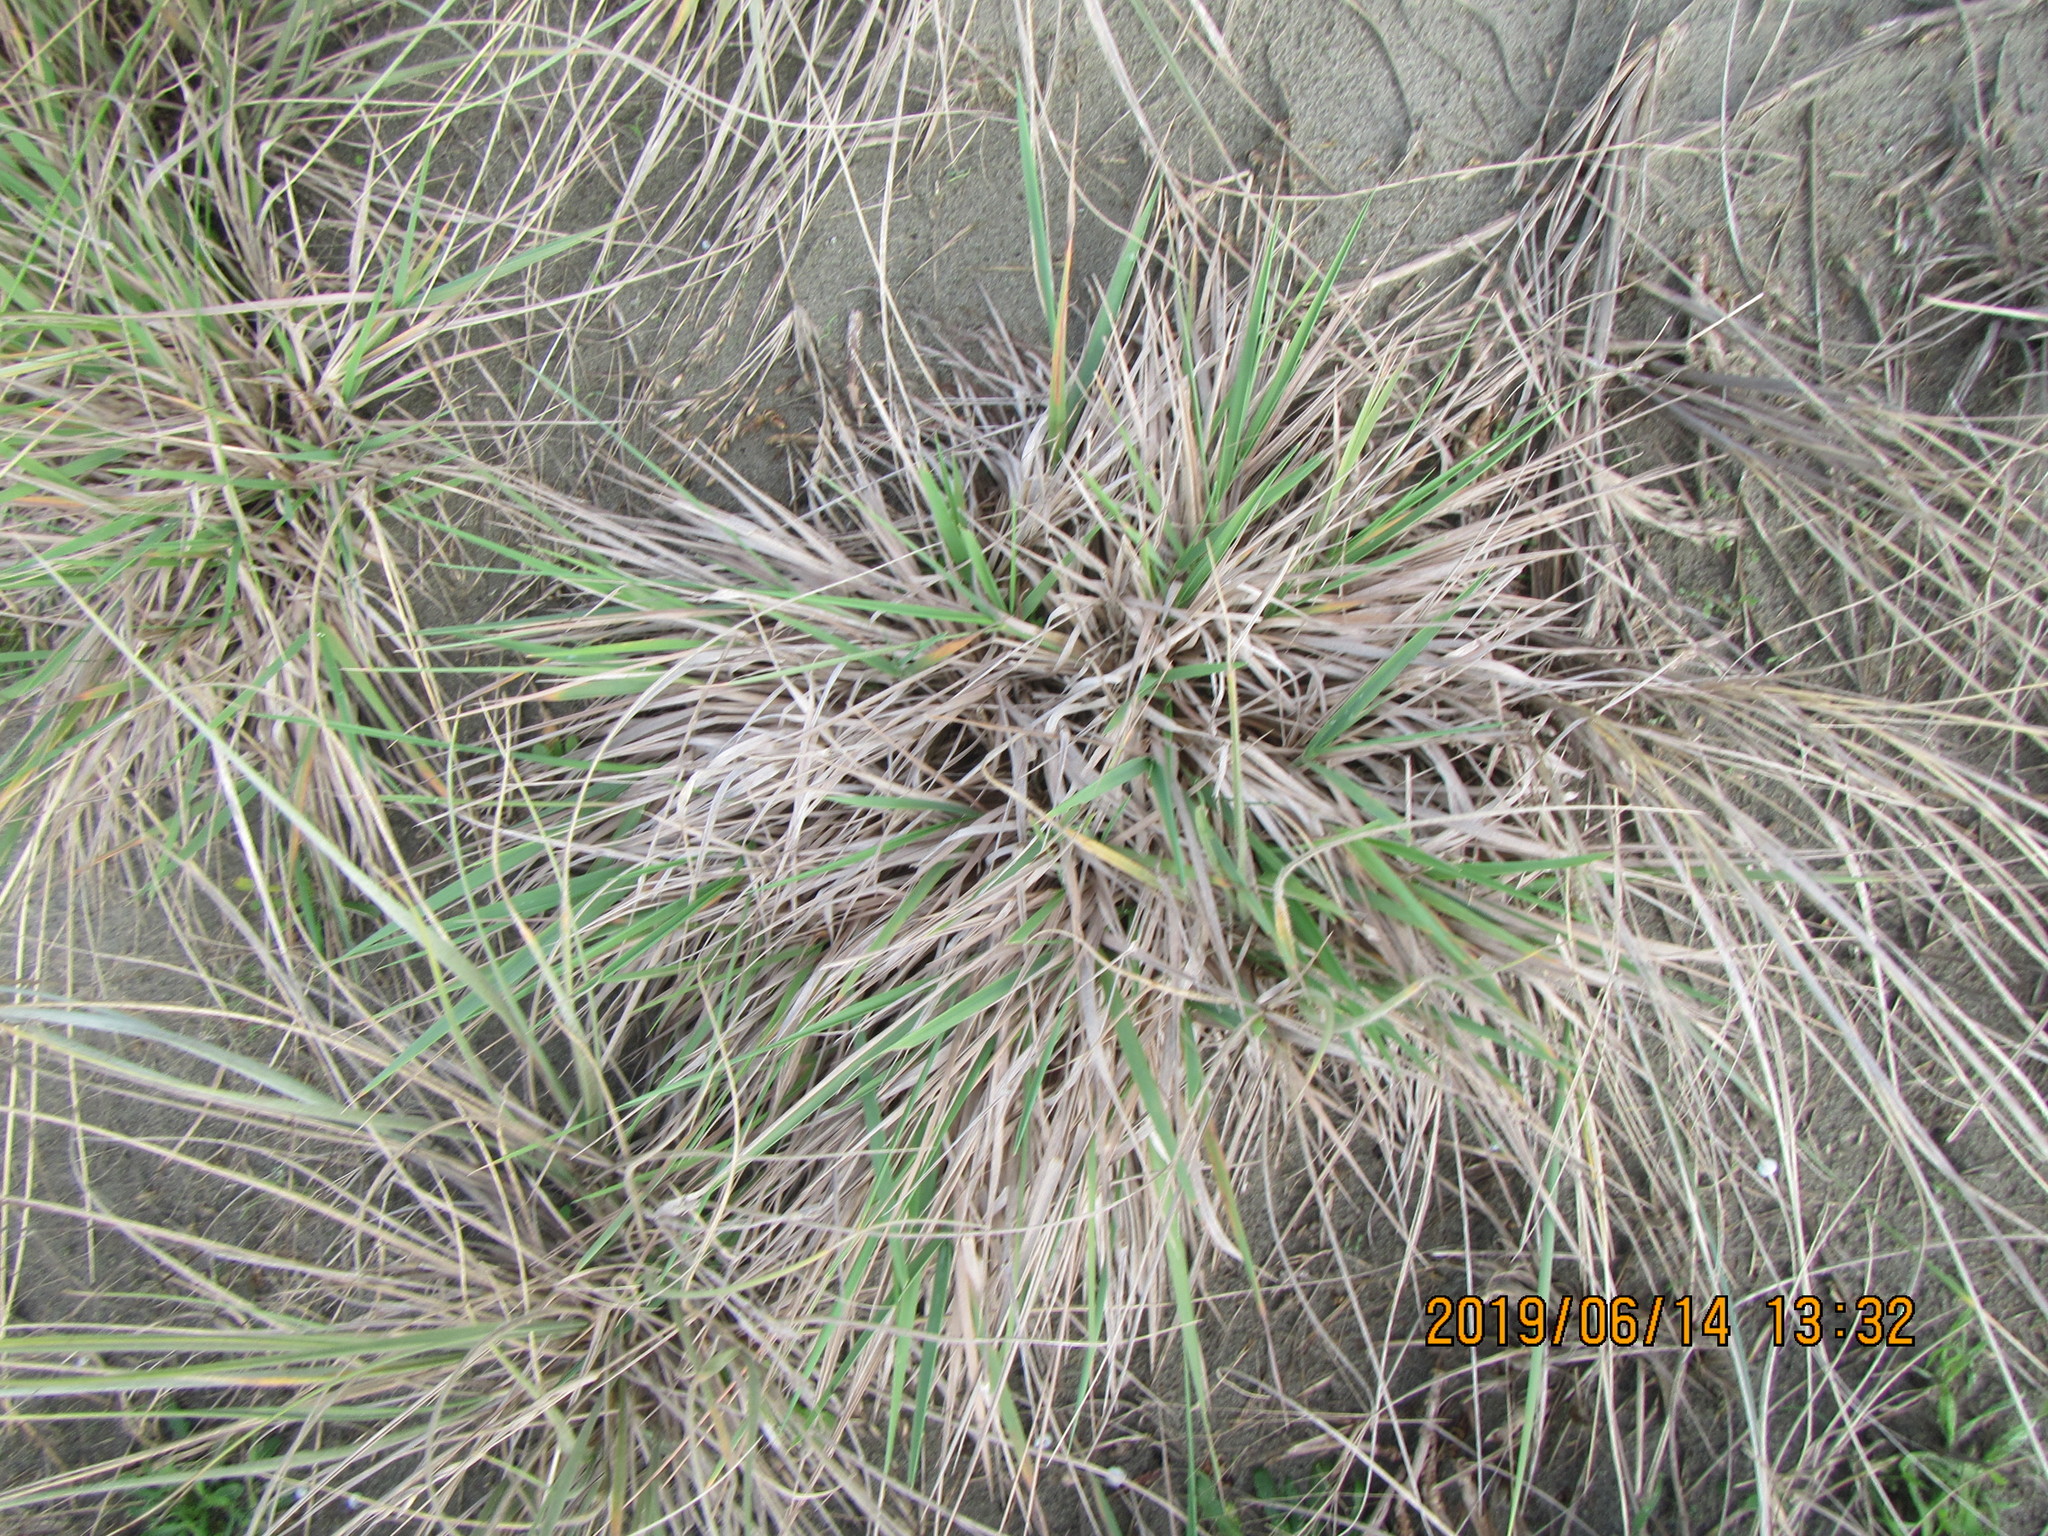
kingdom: Plantae
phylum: Tracheophyta
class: Liliopsida
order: Poales
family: Poaceae
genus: Lachnagrostis
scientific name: Lachnagrostis billardierei
